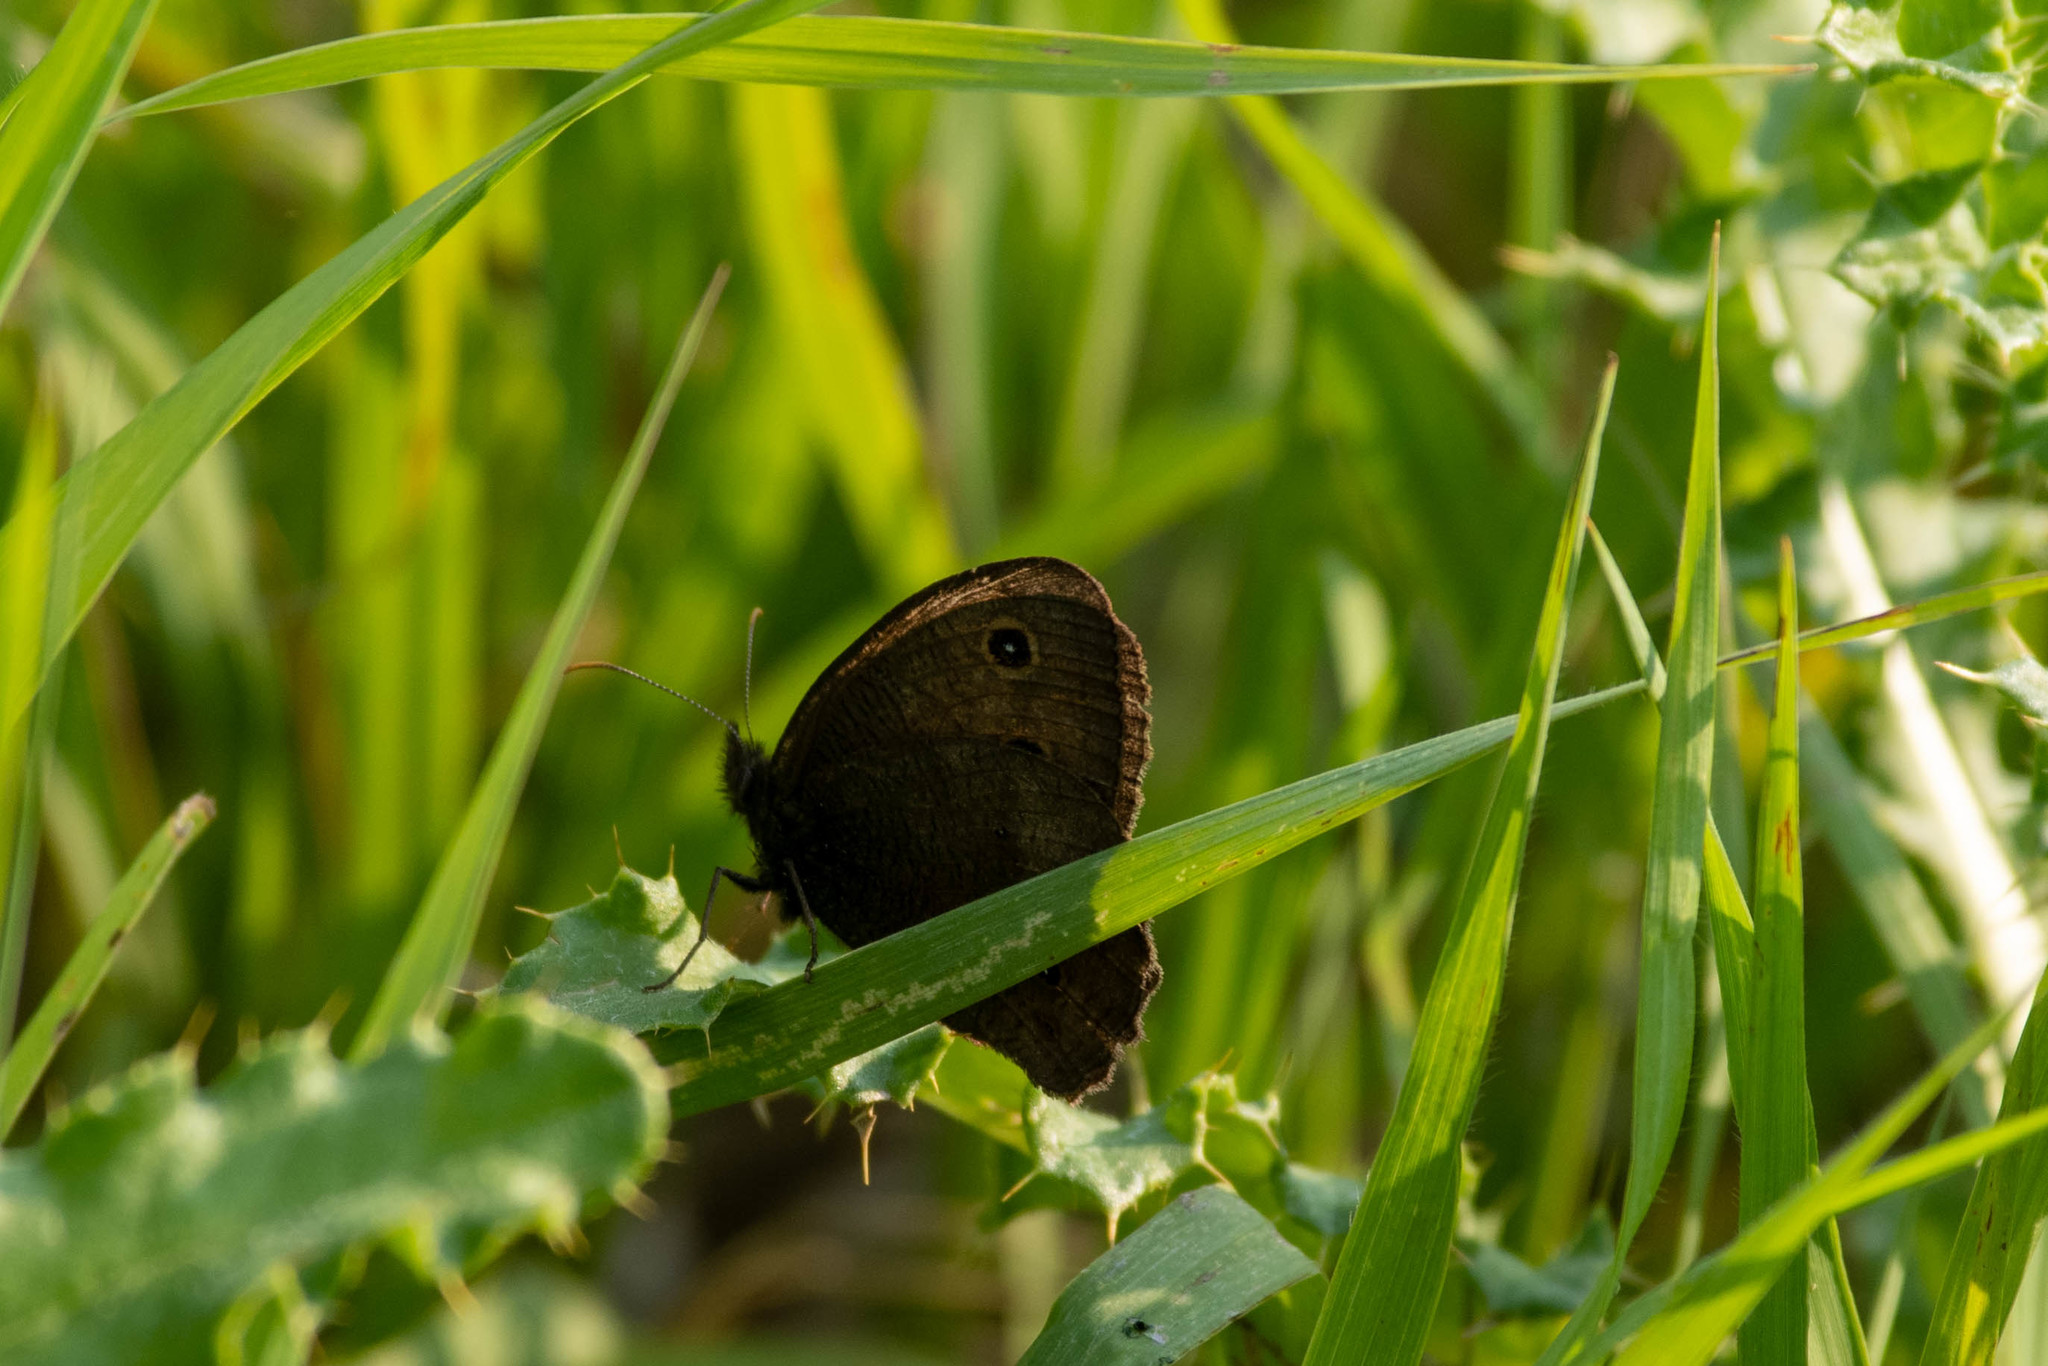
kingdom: Animalia
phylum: Arthropoda
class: Insecta
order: Lepidoptera
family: Nymphalidae
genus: Cercyonis
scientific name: Cercyonis pegala
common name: Common wood-nymph
